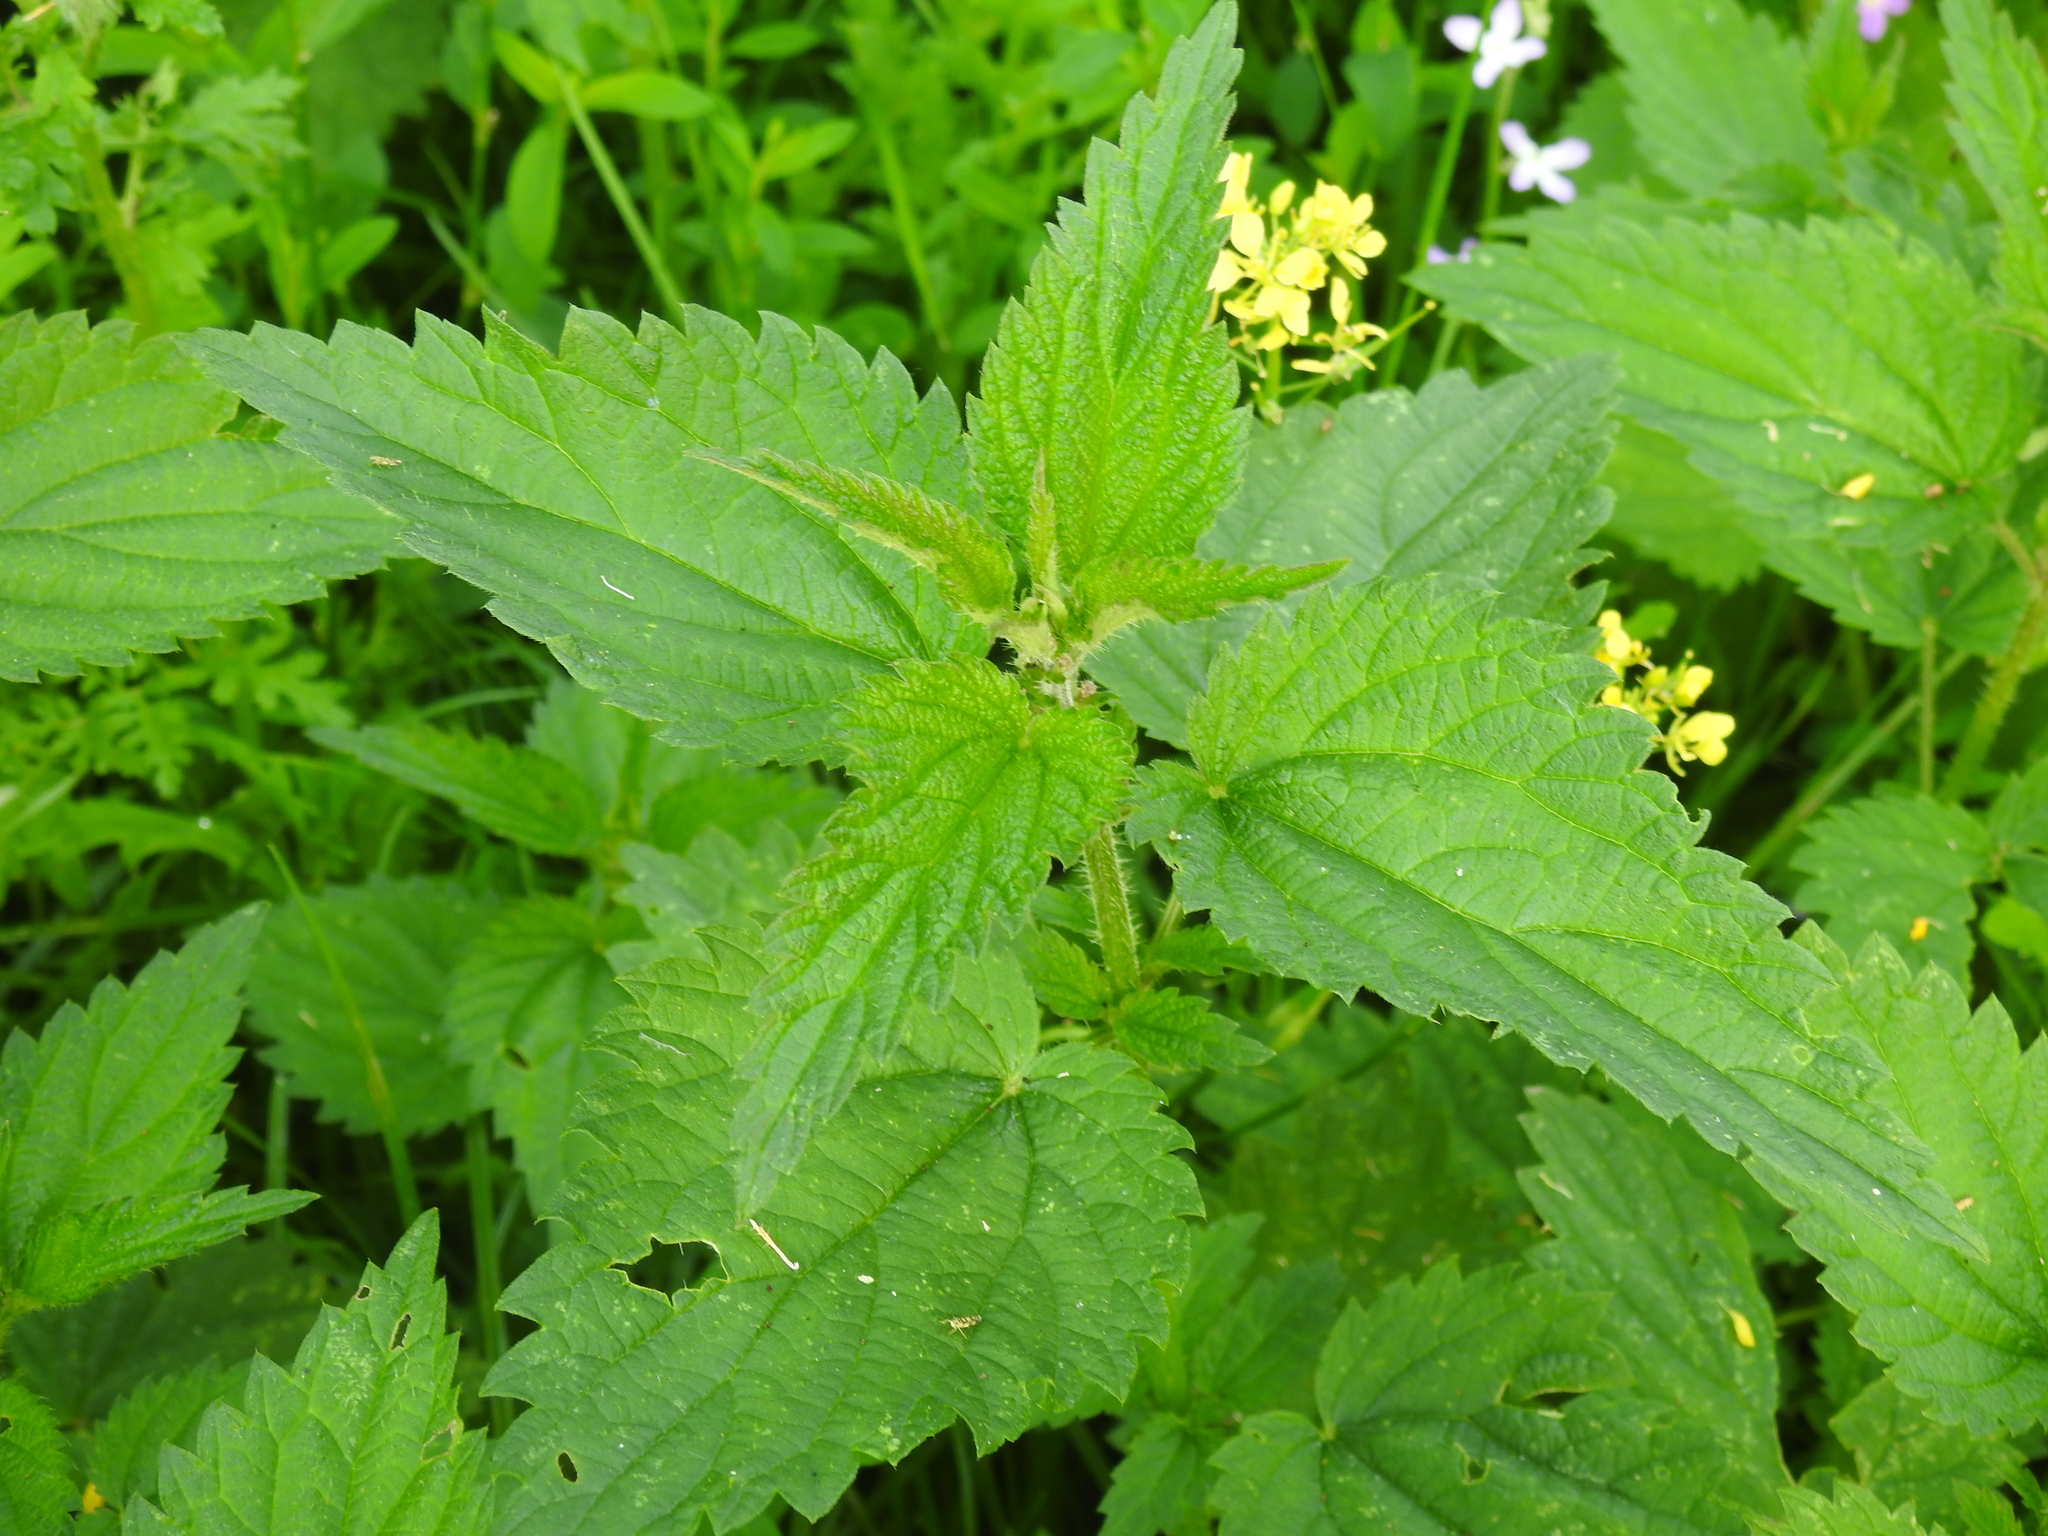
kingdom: Plantae
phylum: Tracheophyta
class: Magnoliopsida
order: Rosales
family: Urticaceae
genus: Urtica
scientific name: Urtica dioica
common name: Common nettle
